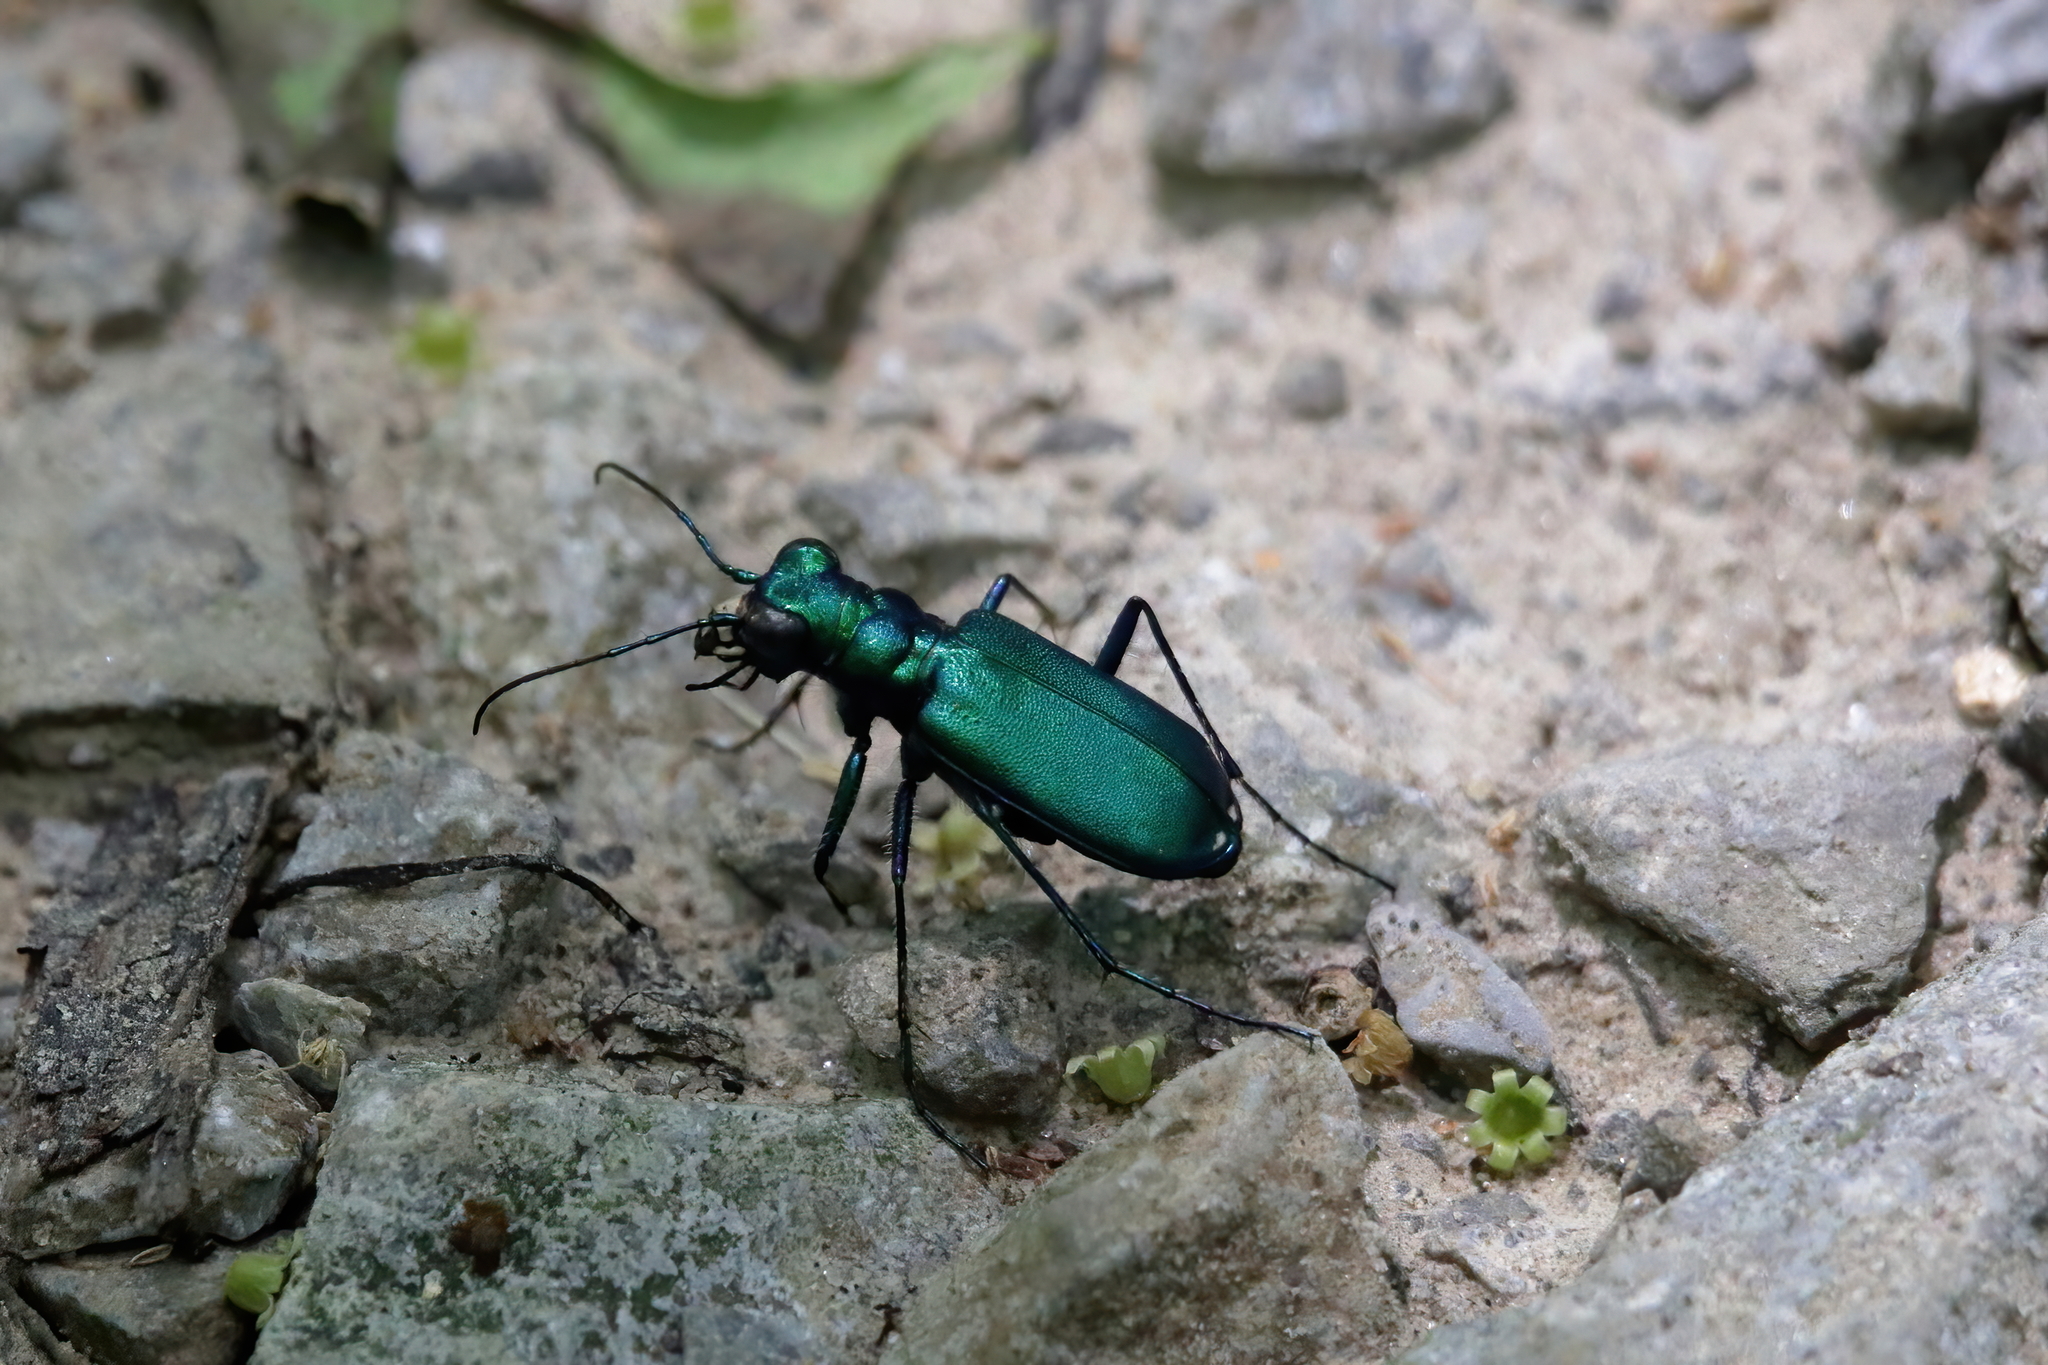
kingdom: Animalia
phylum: Arthropoda
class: Insecta
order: Coleoptera
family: Carabidae
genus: Cicindela
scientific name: Cicindela sexguttata
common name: Six-spotted tiger beetle
